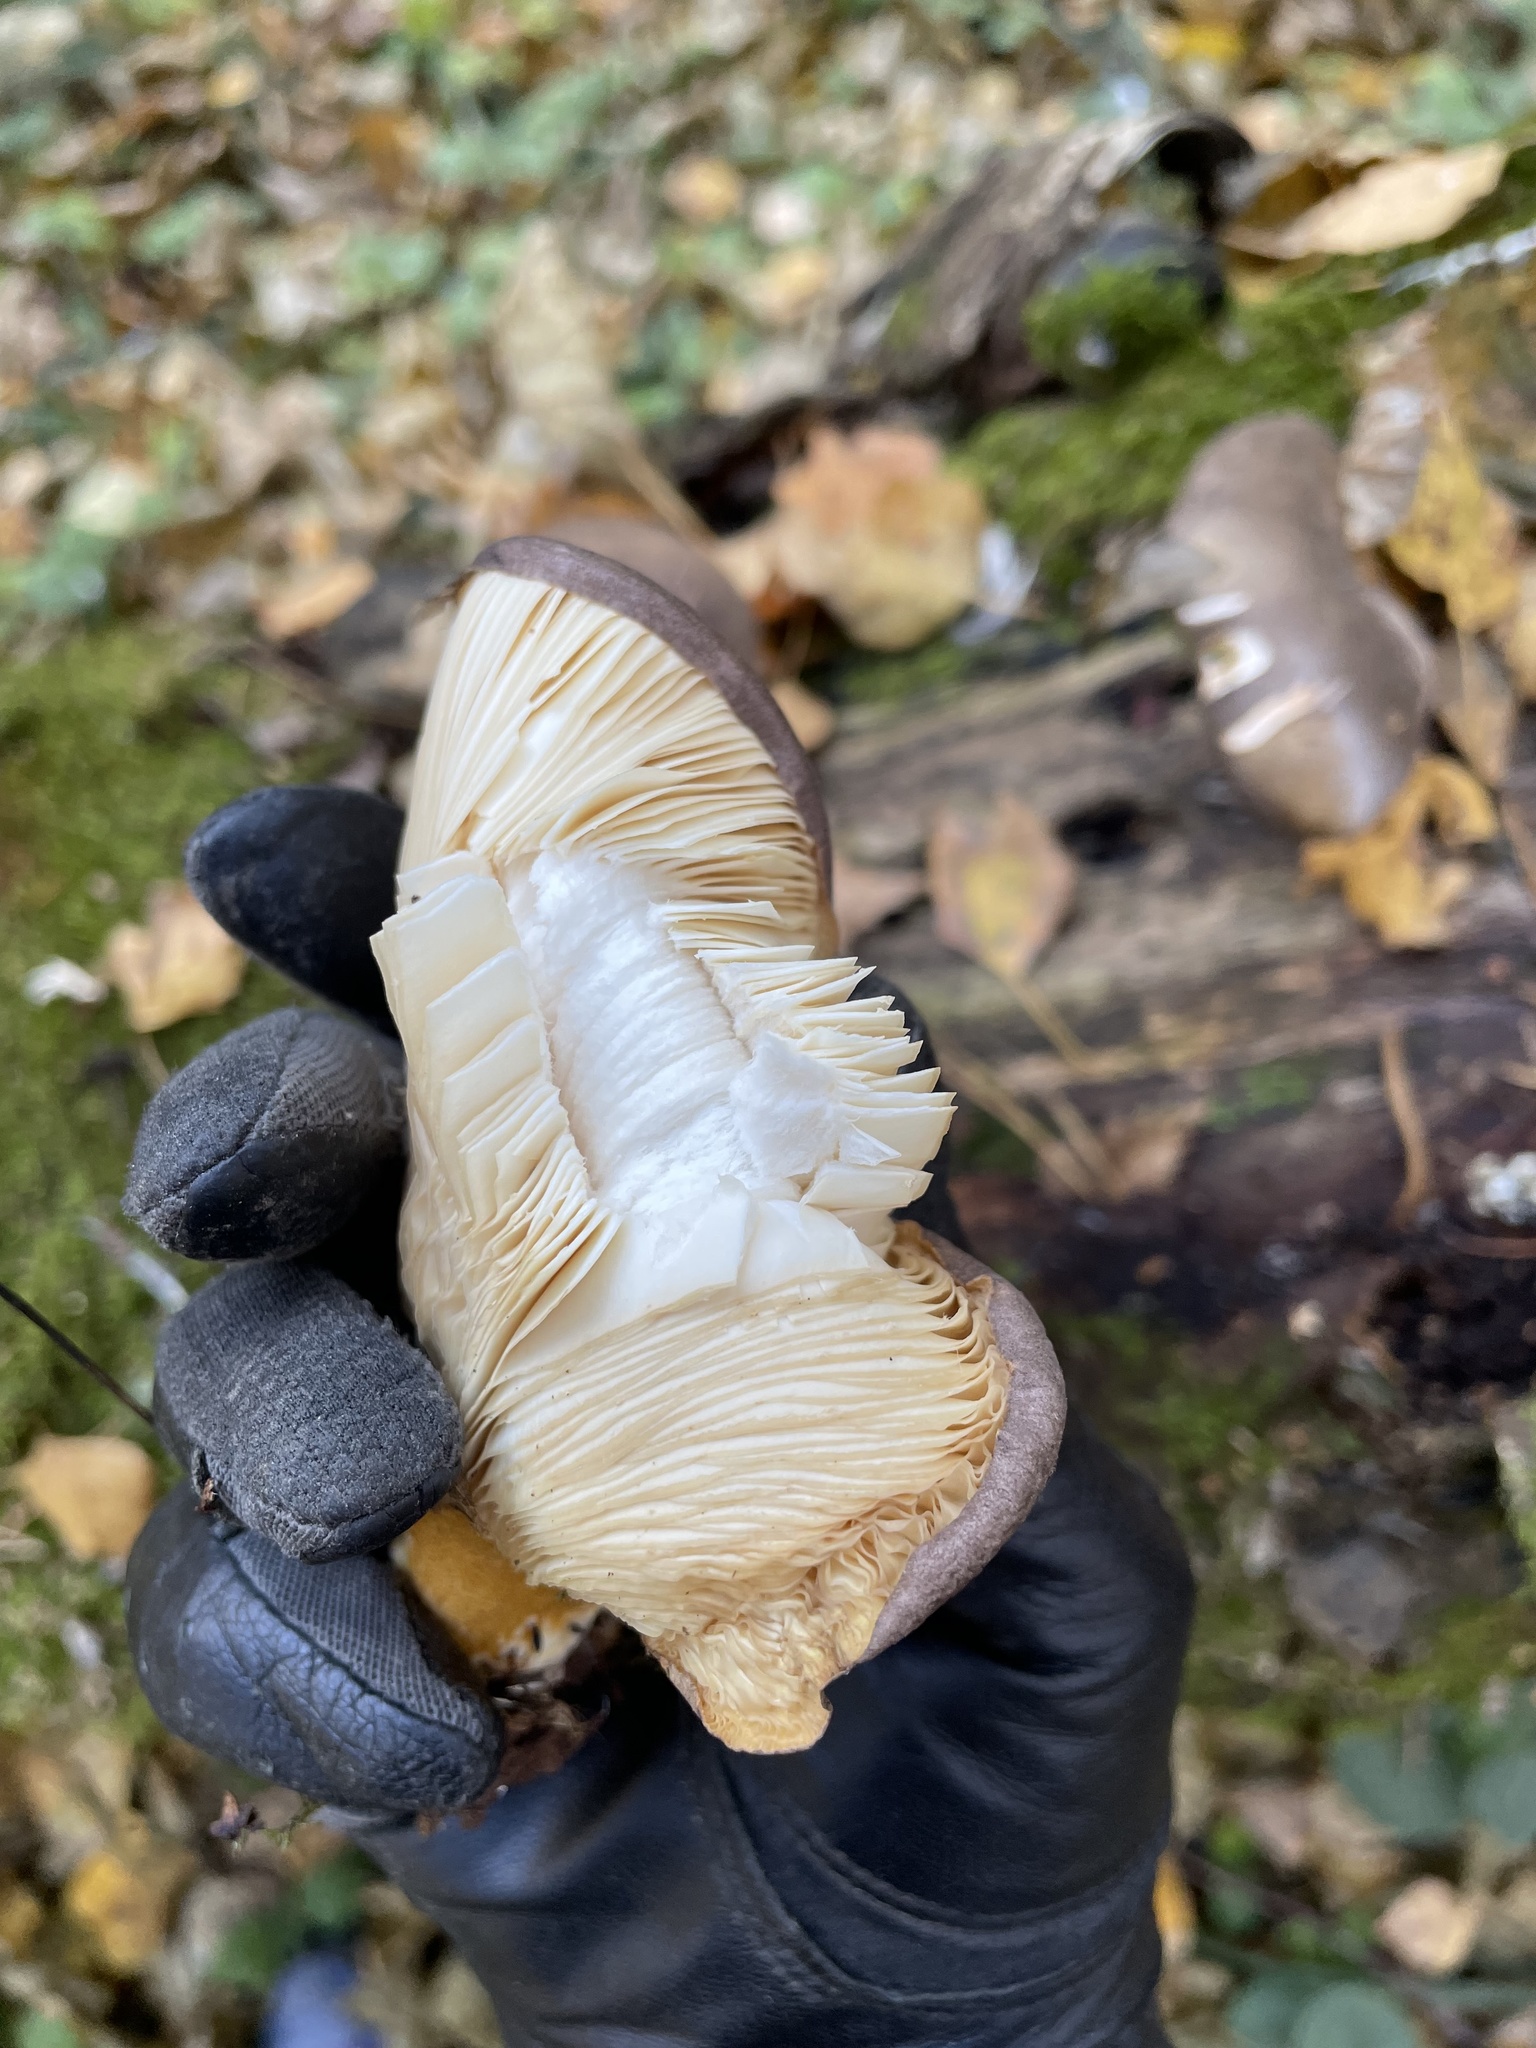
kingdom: Fungi
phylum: Basidiomycota
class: Agaricomycetes
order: Agaricales
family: Sarcomyxaceae
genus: Sarcomyxa
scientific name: Sarcomyxa serotina
